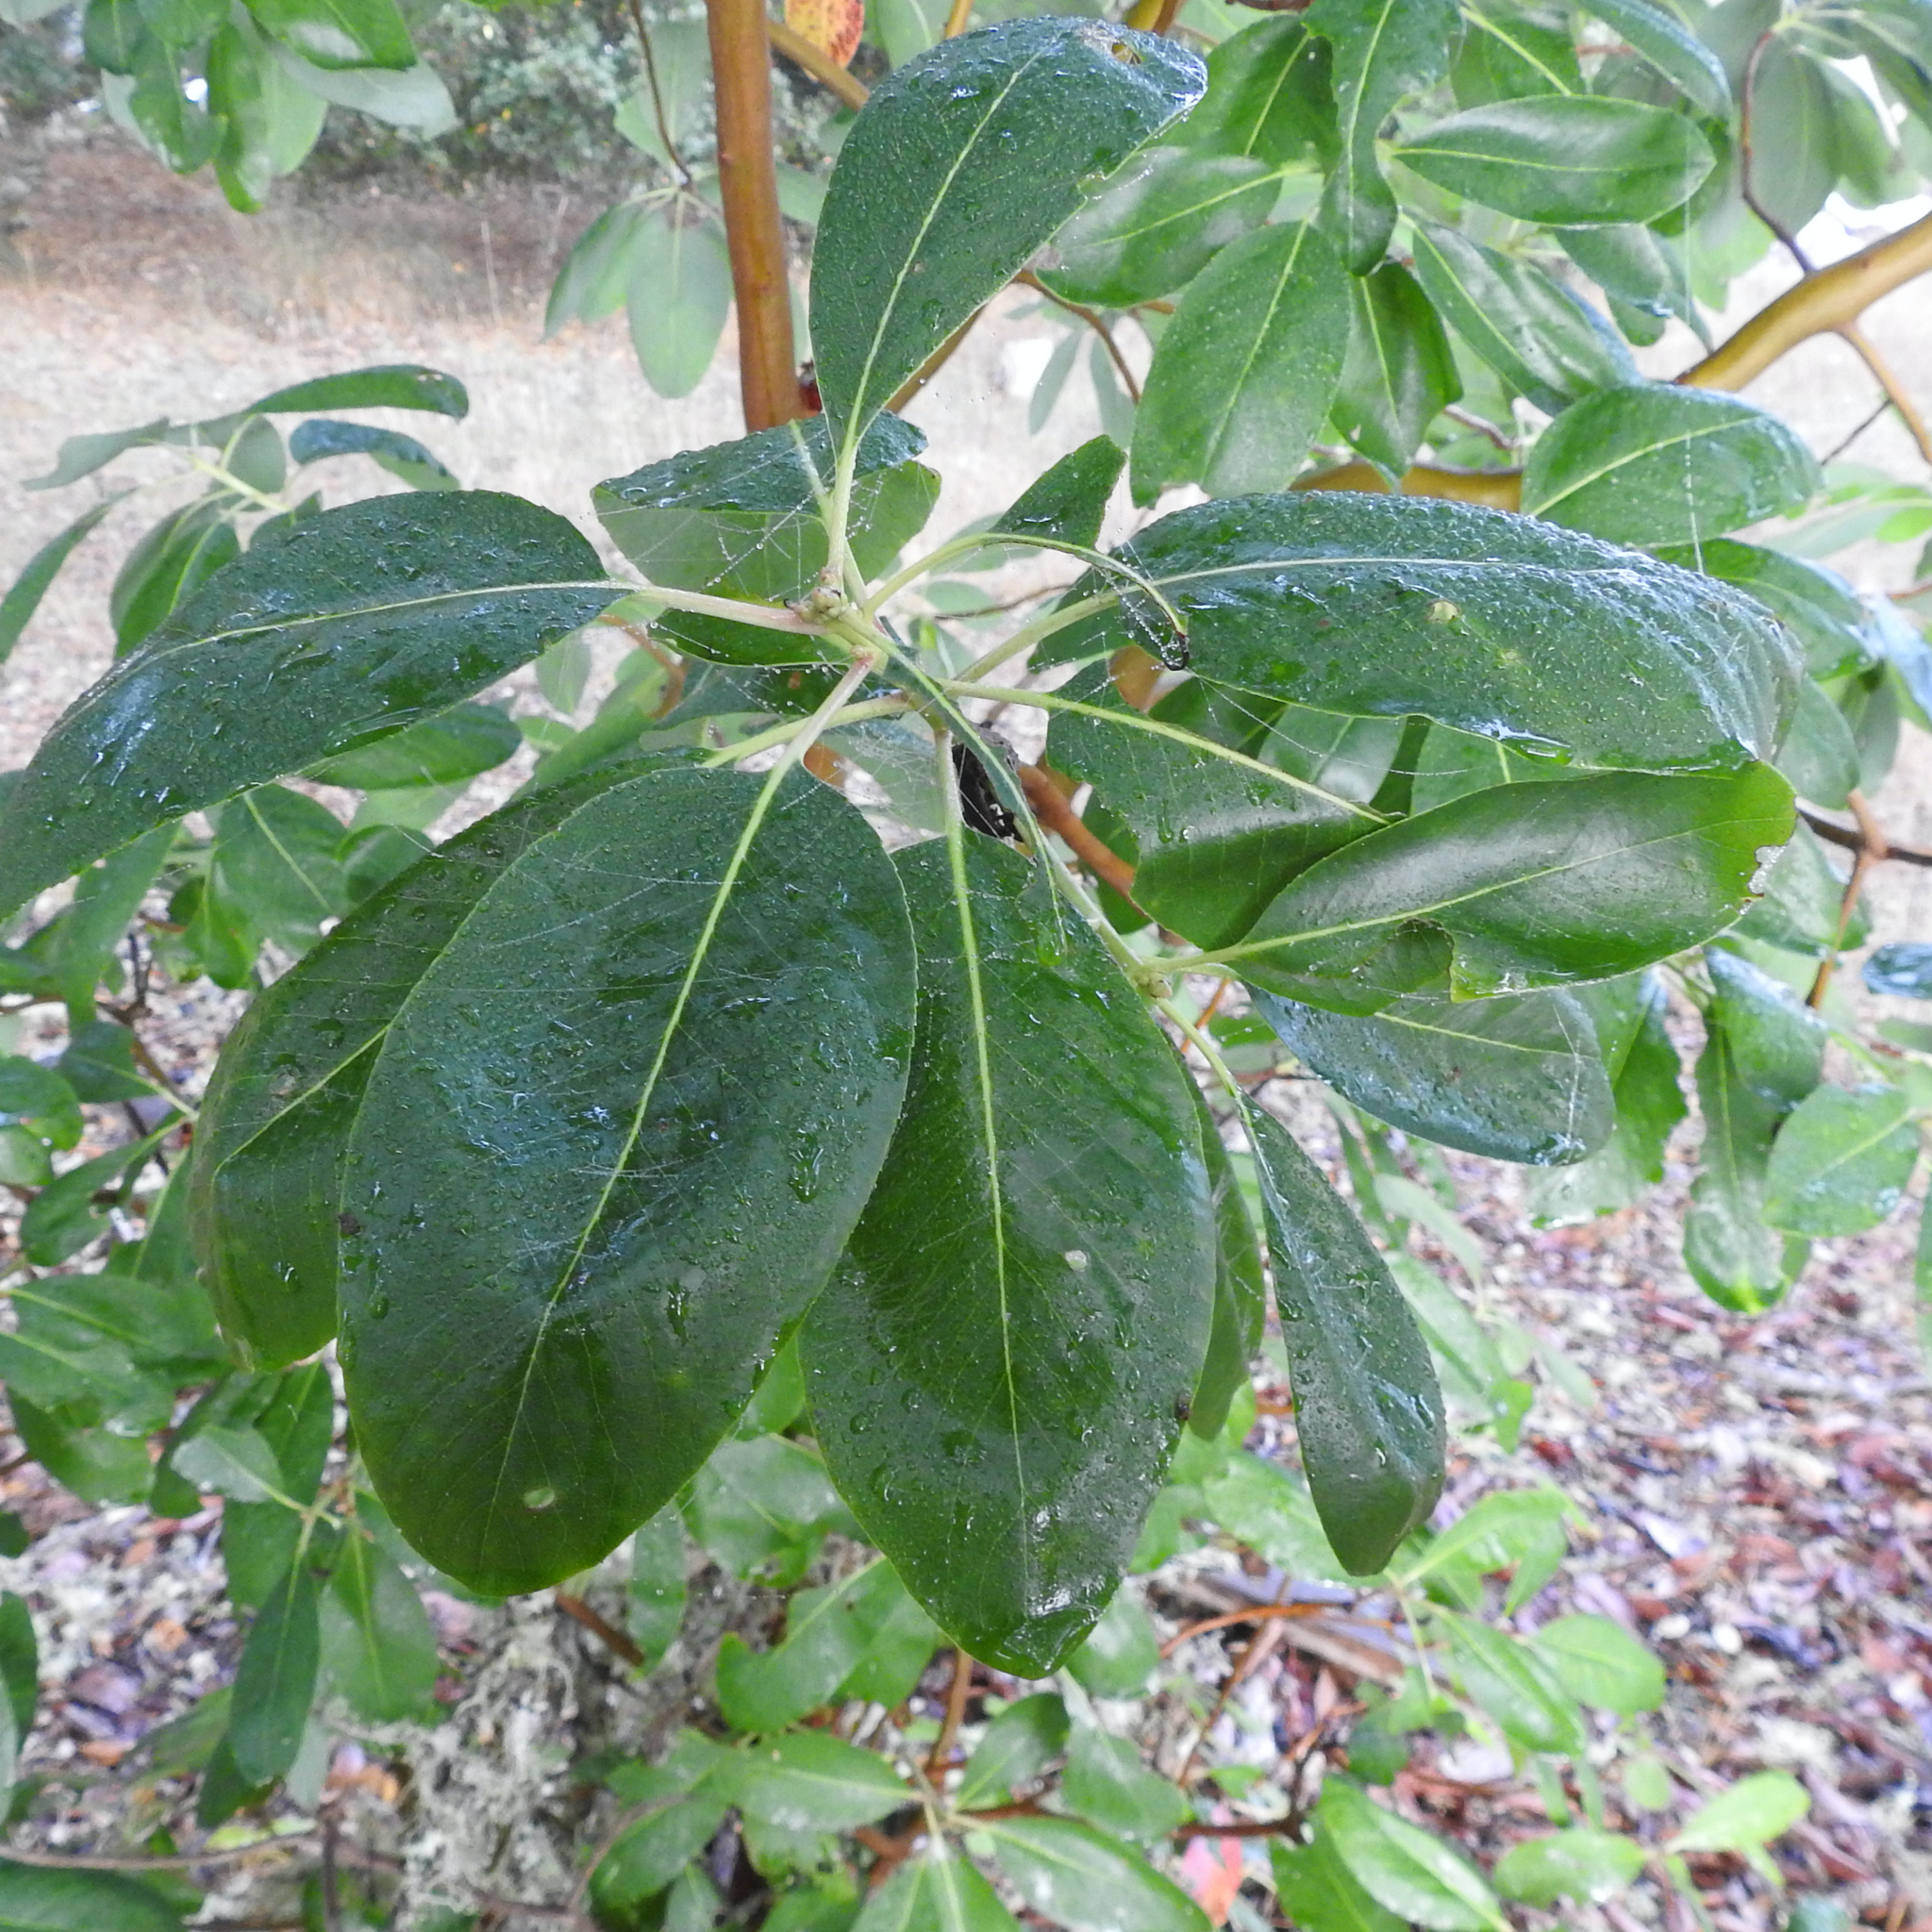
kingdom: Plantae
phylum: Tracheophyta
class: Magnoliopsida
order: Ericales
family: Ericaceae
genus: Arbutus
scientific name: Arbutus menziesii
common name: Pacific madrone
